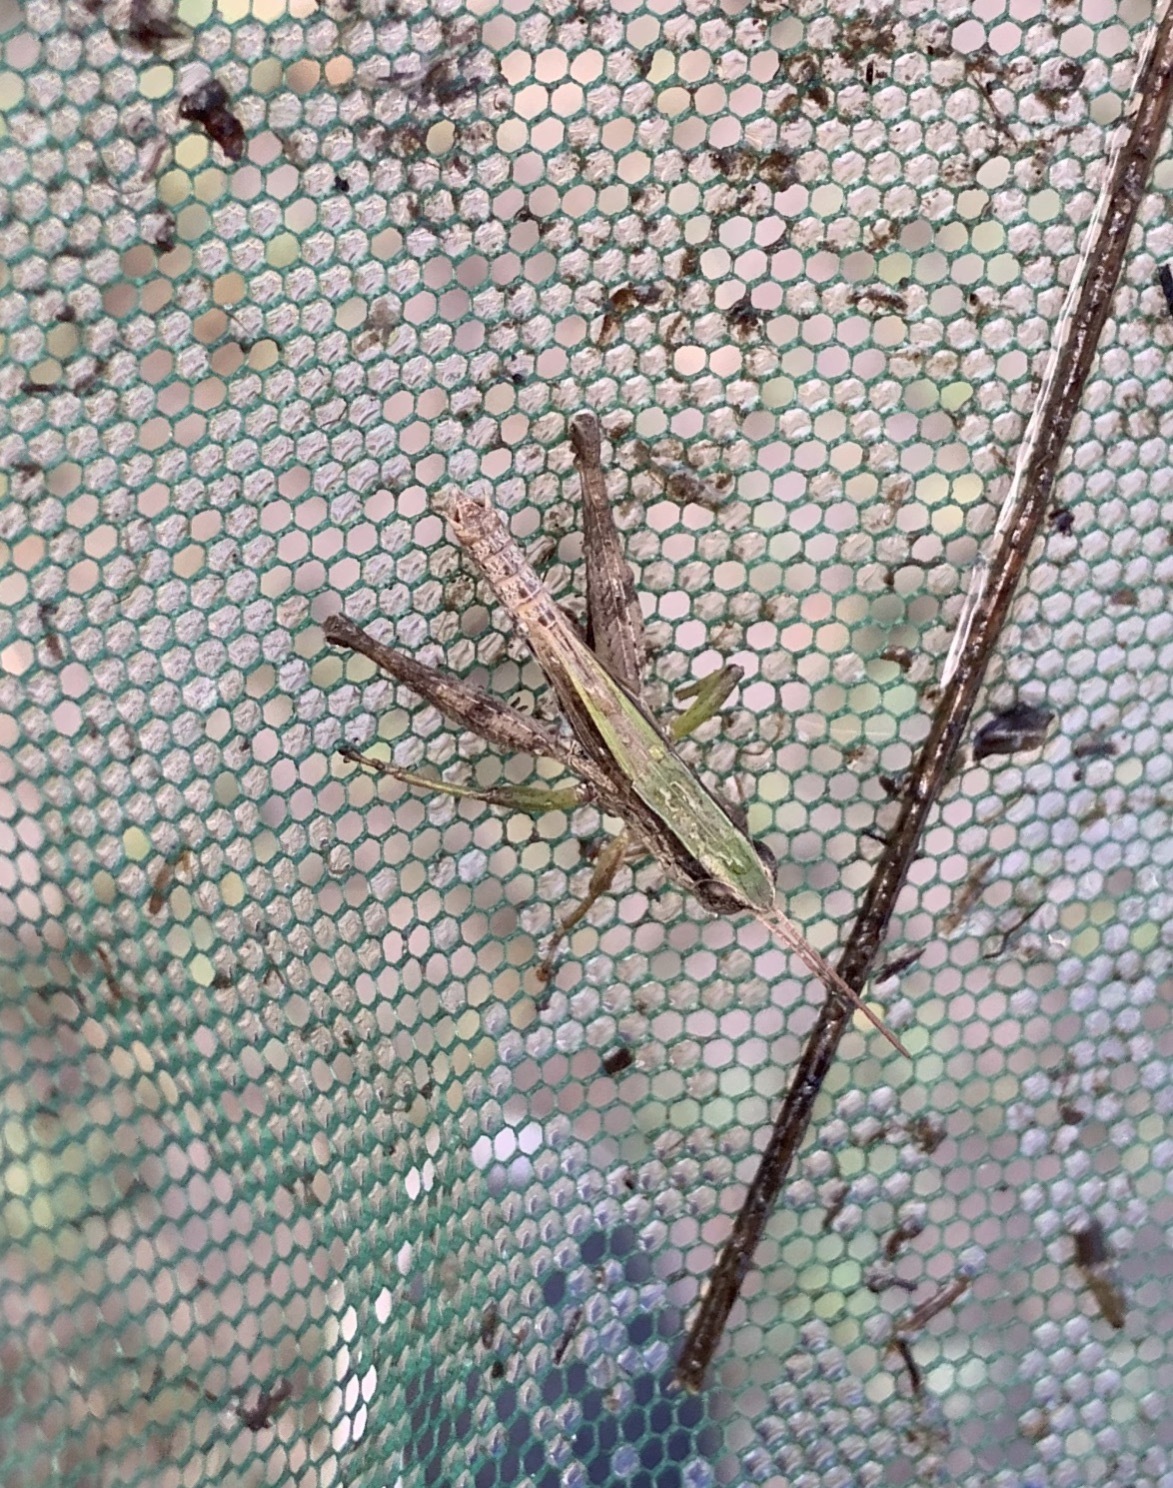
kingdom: Animalia
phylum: Arthropoda
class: Insecta
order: Orthoptera
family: Acrididae
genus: Dichromorpha
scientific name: Dichromorpha viridis
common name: Short-winged green grasshopper
